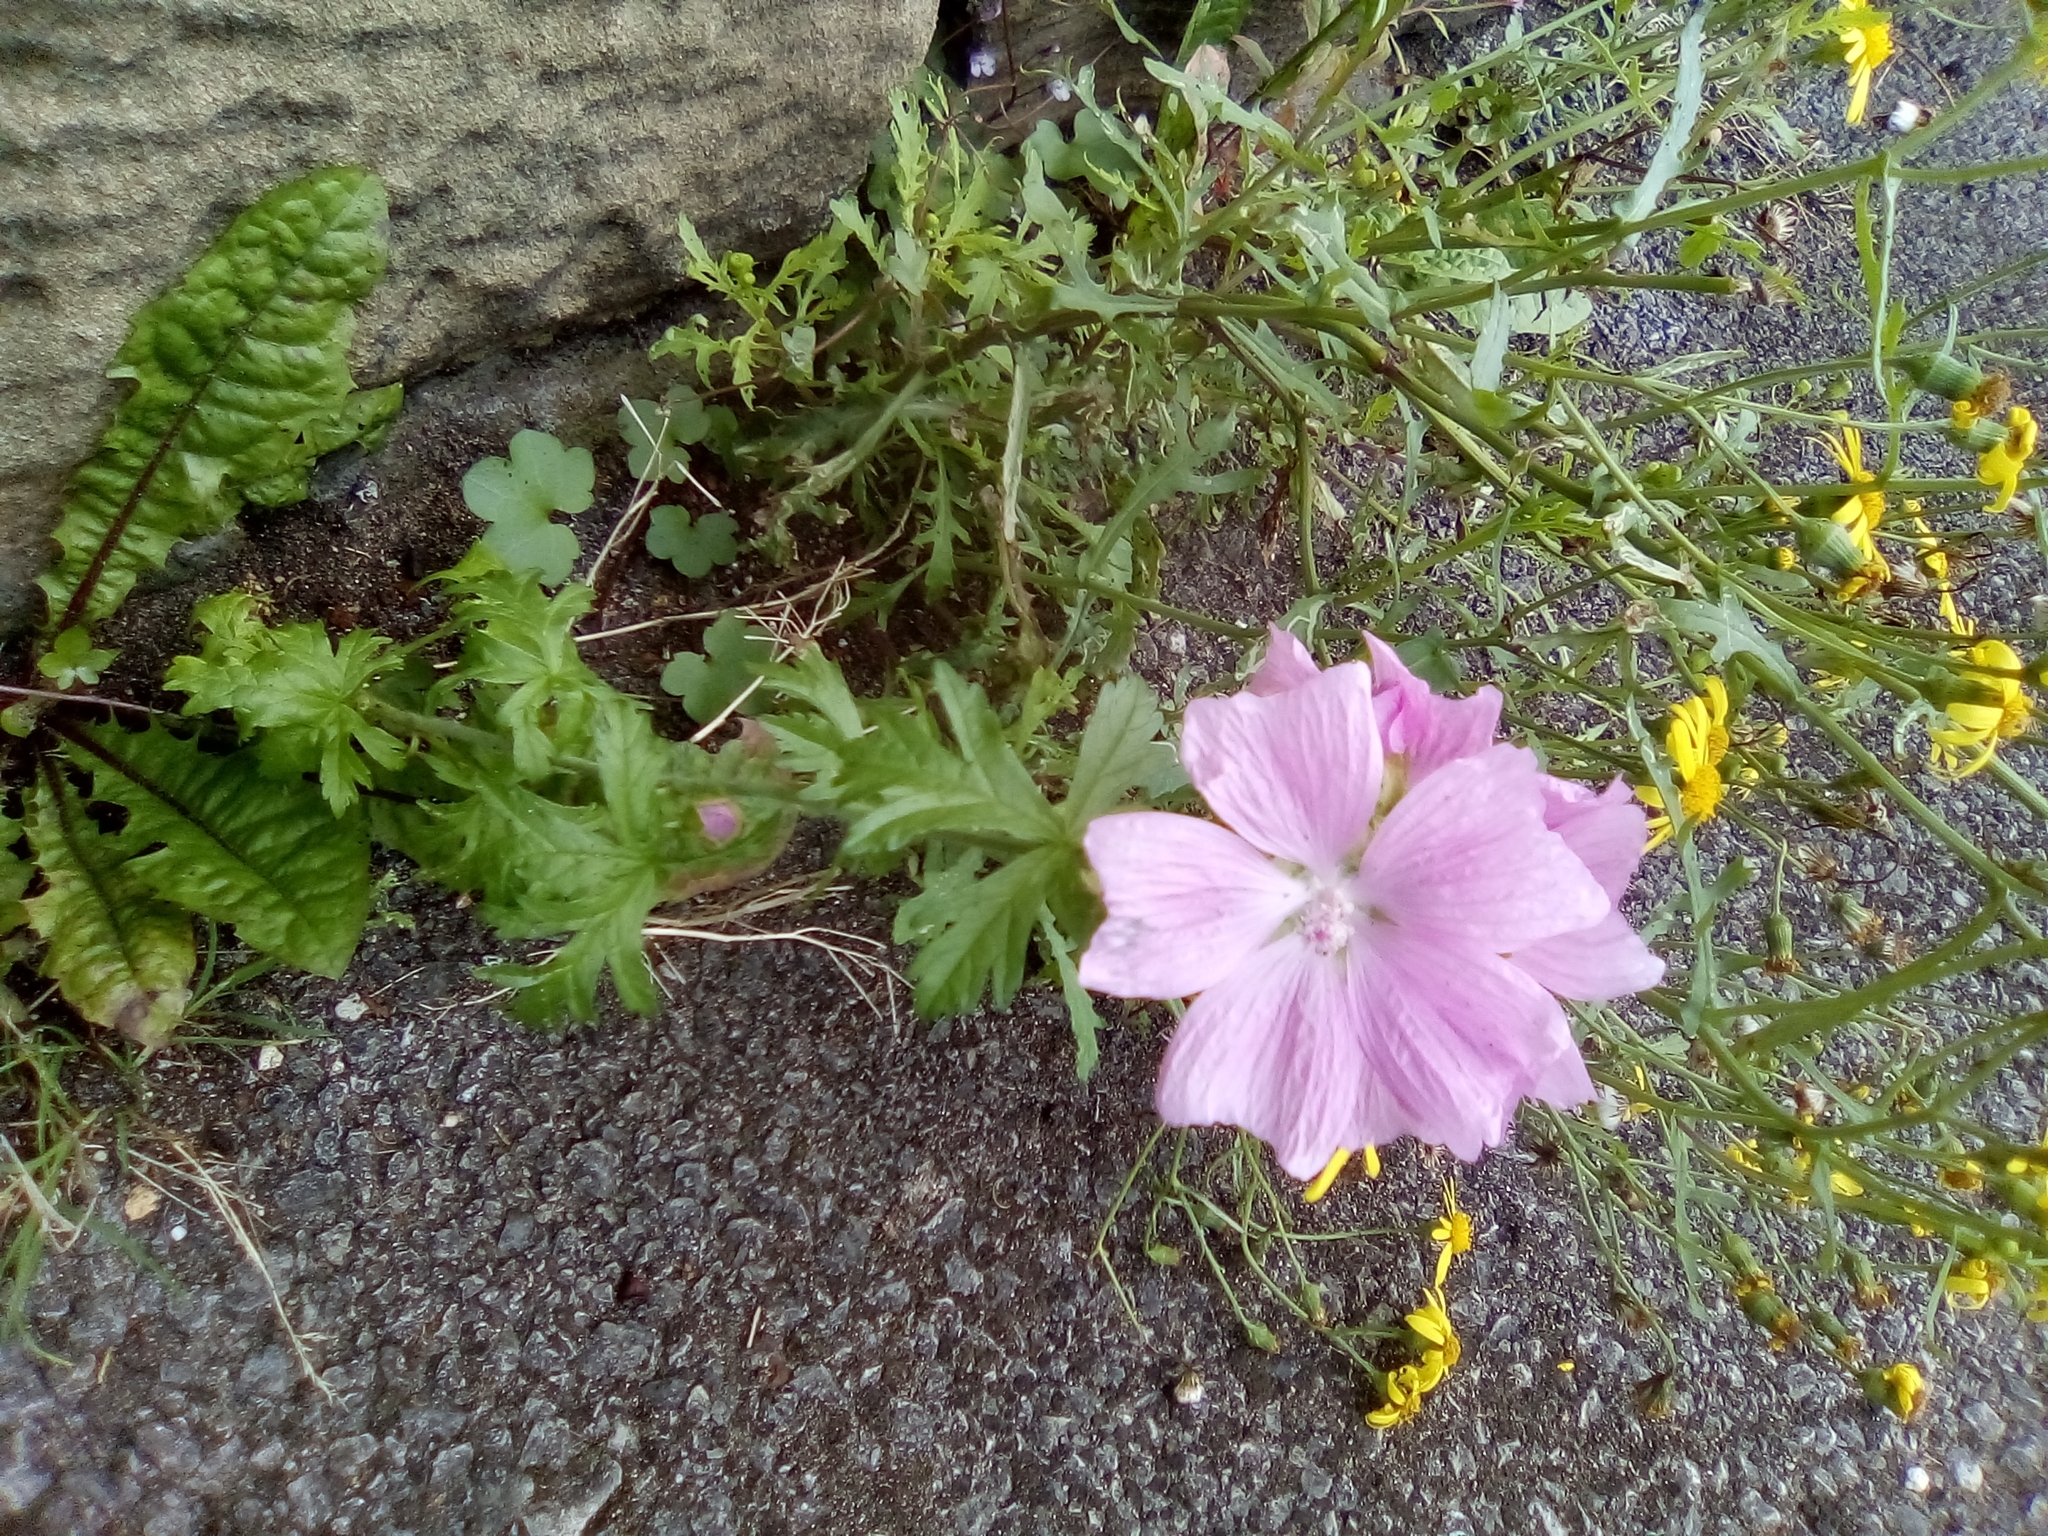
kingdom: Plantae
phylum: Tracheophyta
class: Magnoliopsida
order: Malvales
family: Malvaceae
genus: Malva
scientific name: Malva moschata
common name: Musk mallow
